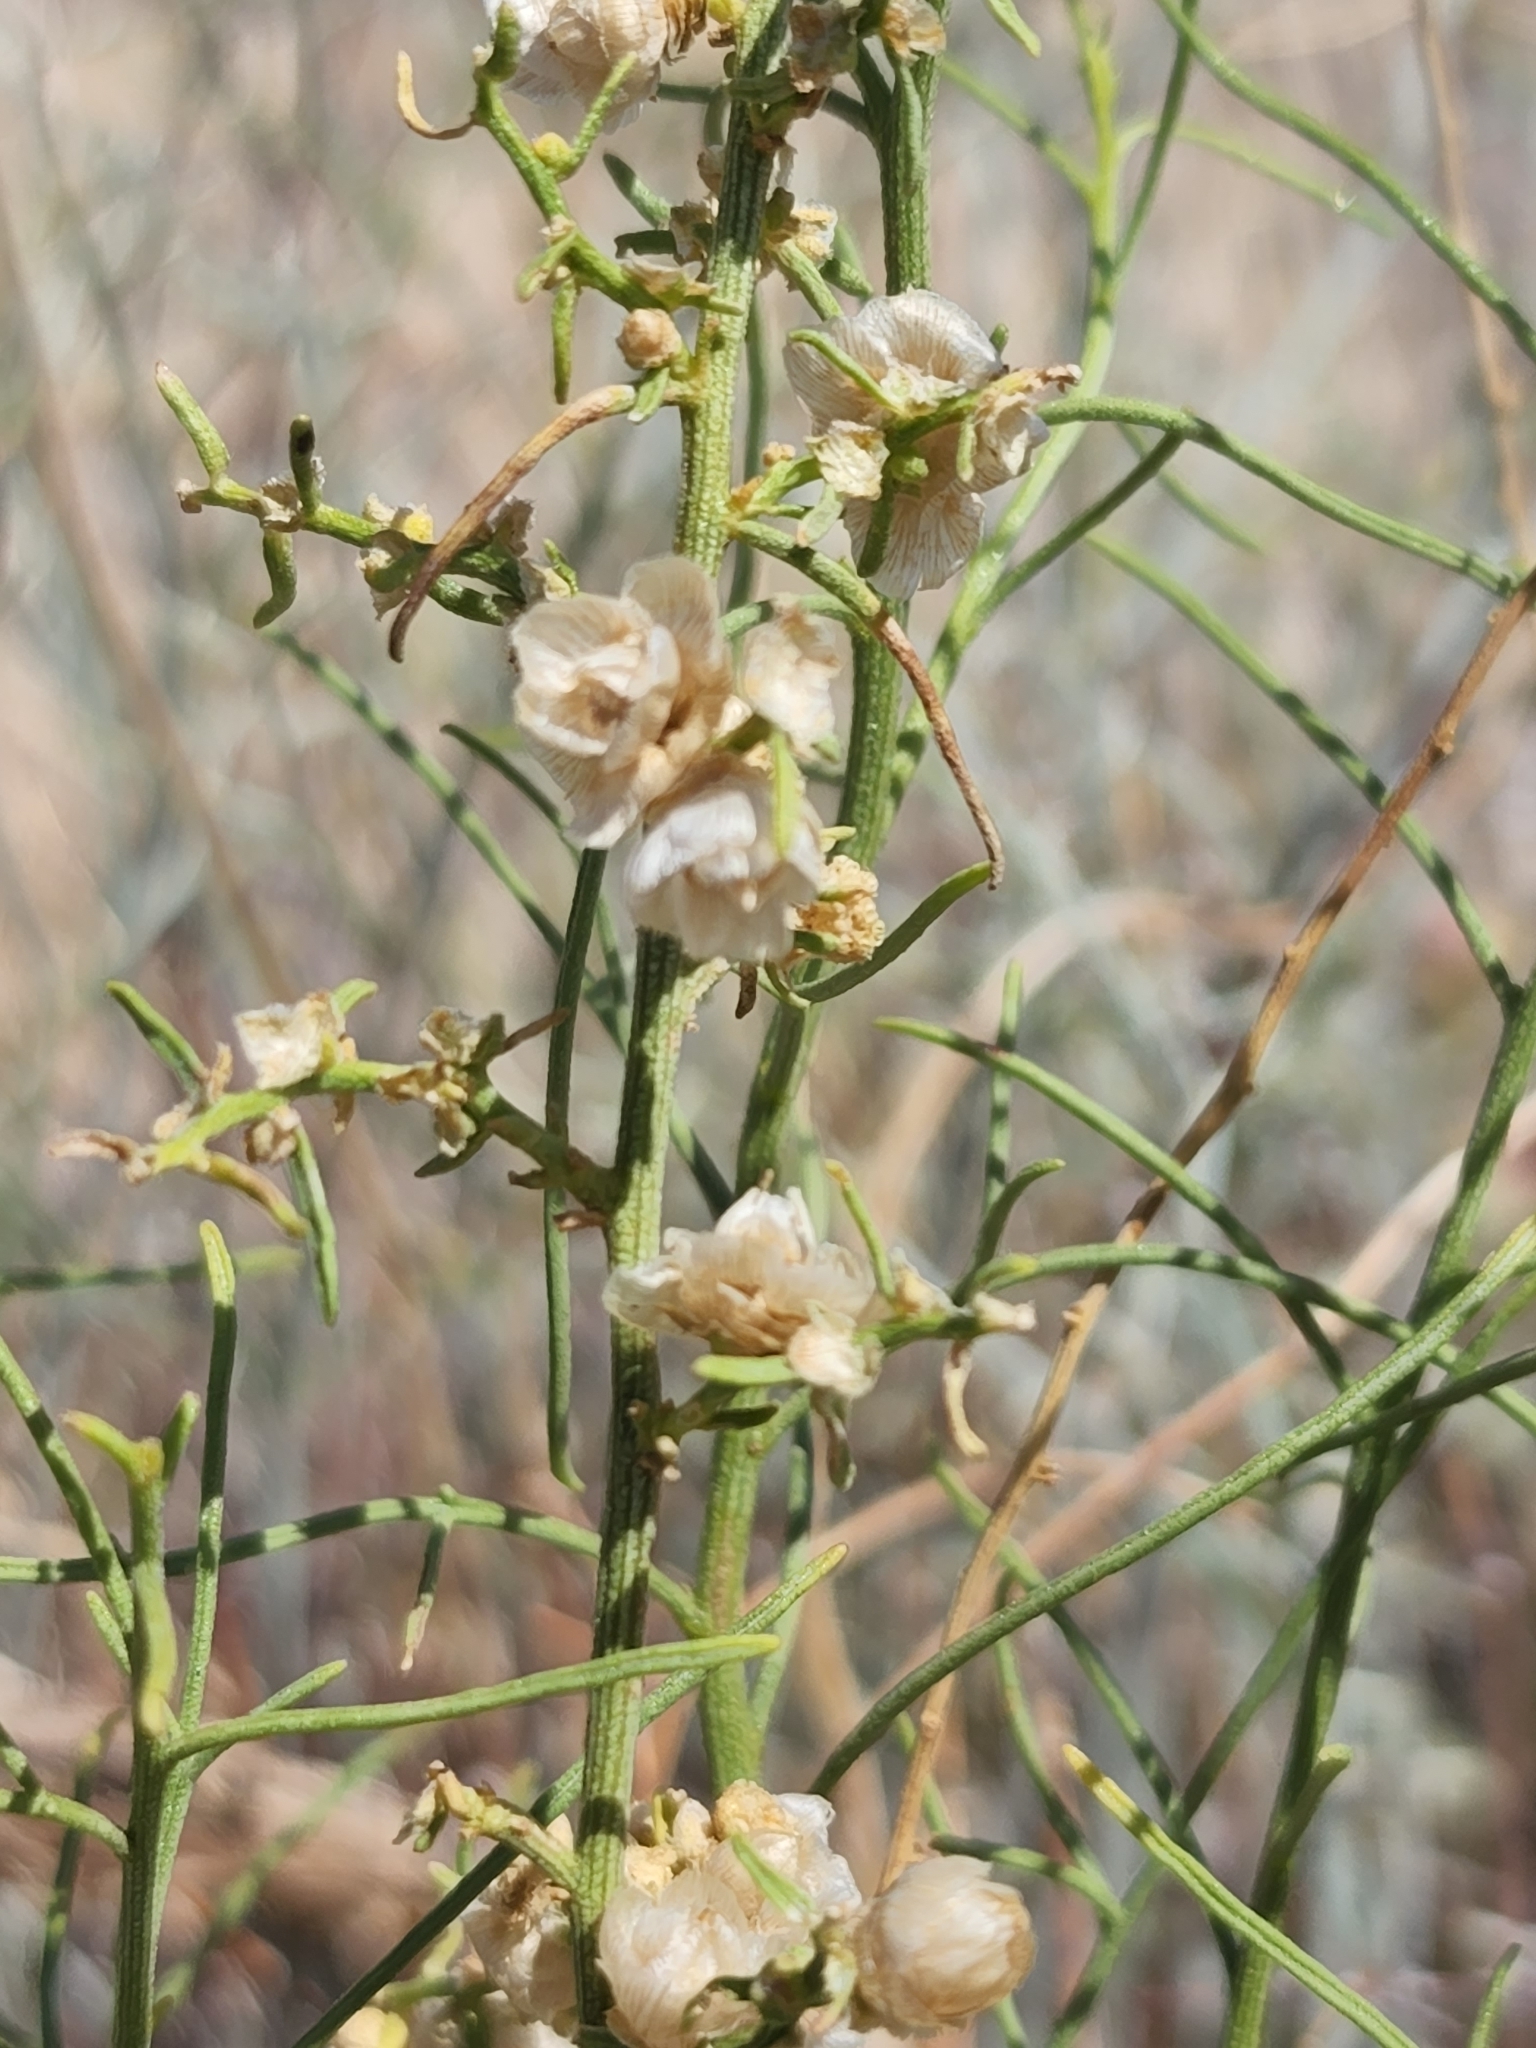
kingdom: Plantae
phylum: Tracheophyta
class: Magnoliopsida
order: Asterales
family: Asteraceae
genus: Ambrosia
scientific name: Ambrosia salsola
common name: Burrobrush
